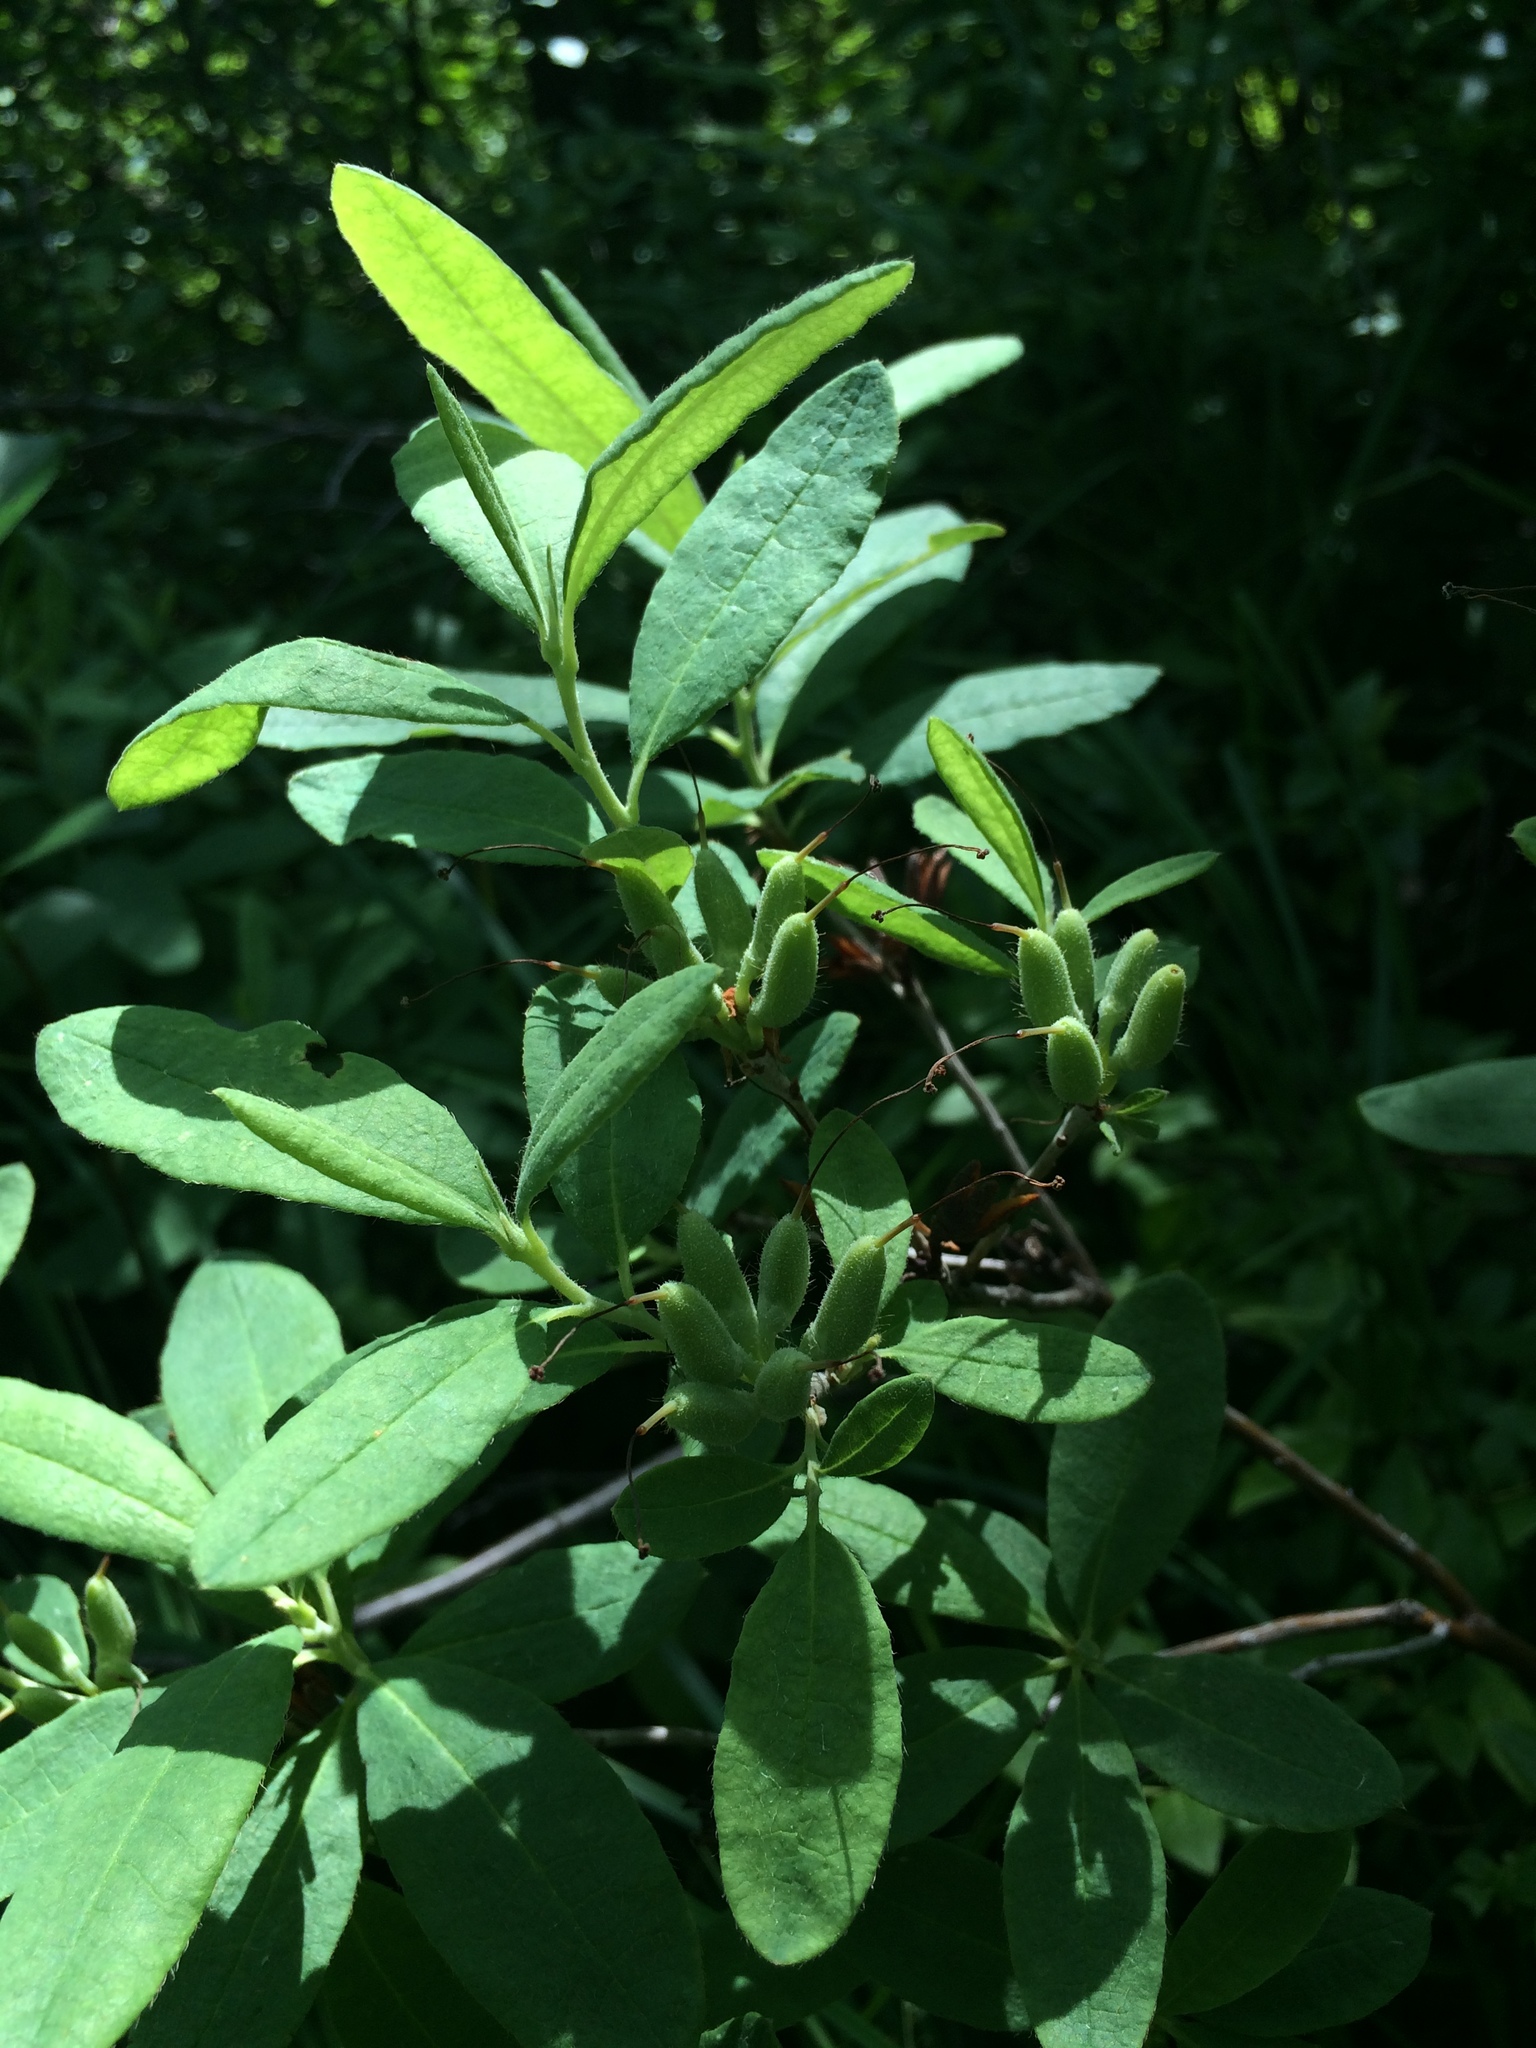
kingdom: Plantae
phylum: Tracheophyta
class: Magnoliopsida
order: Ericales
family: Ericaceae
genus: Rhododendron
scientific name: Rhododendron canadense
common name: Rhodora
